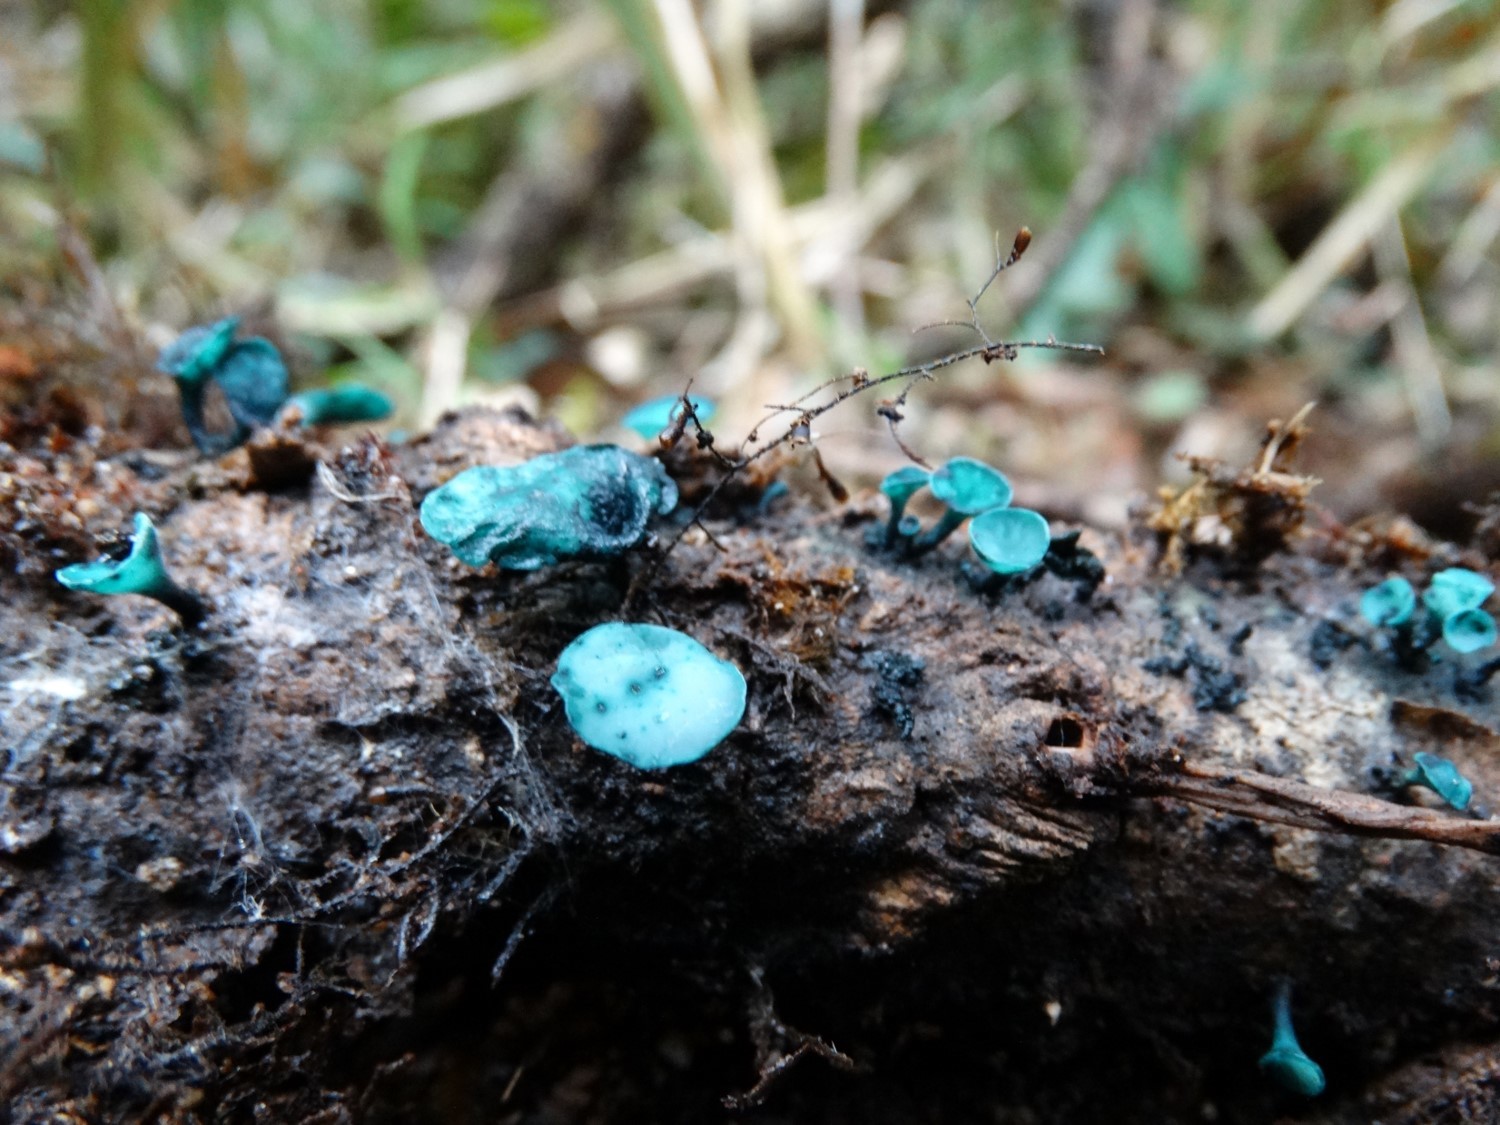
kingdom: Fungi
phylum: Ascomycota
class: Leotiomycetes
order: Helotiales
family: Chlorociboriaceae
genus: Chlorociboria
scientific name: Chlorociboria
